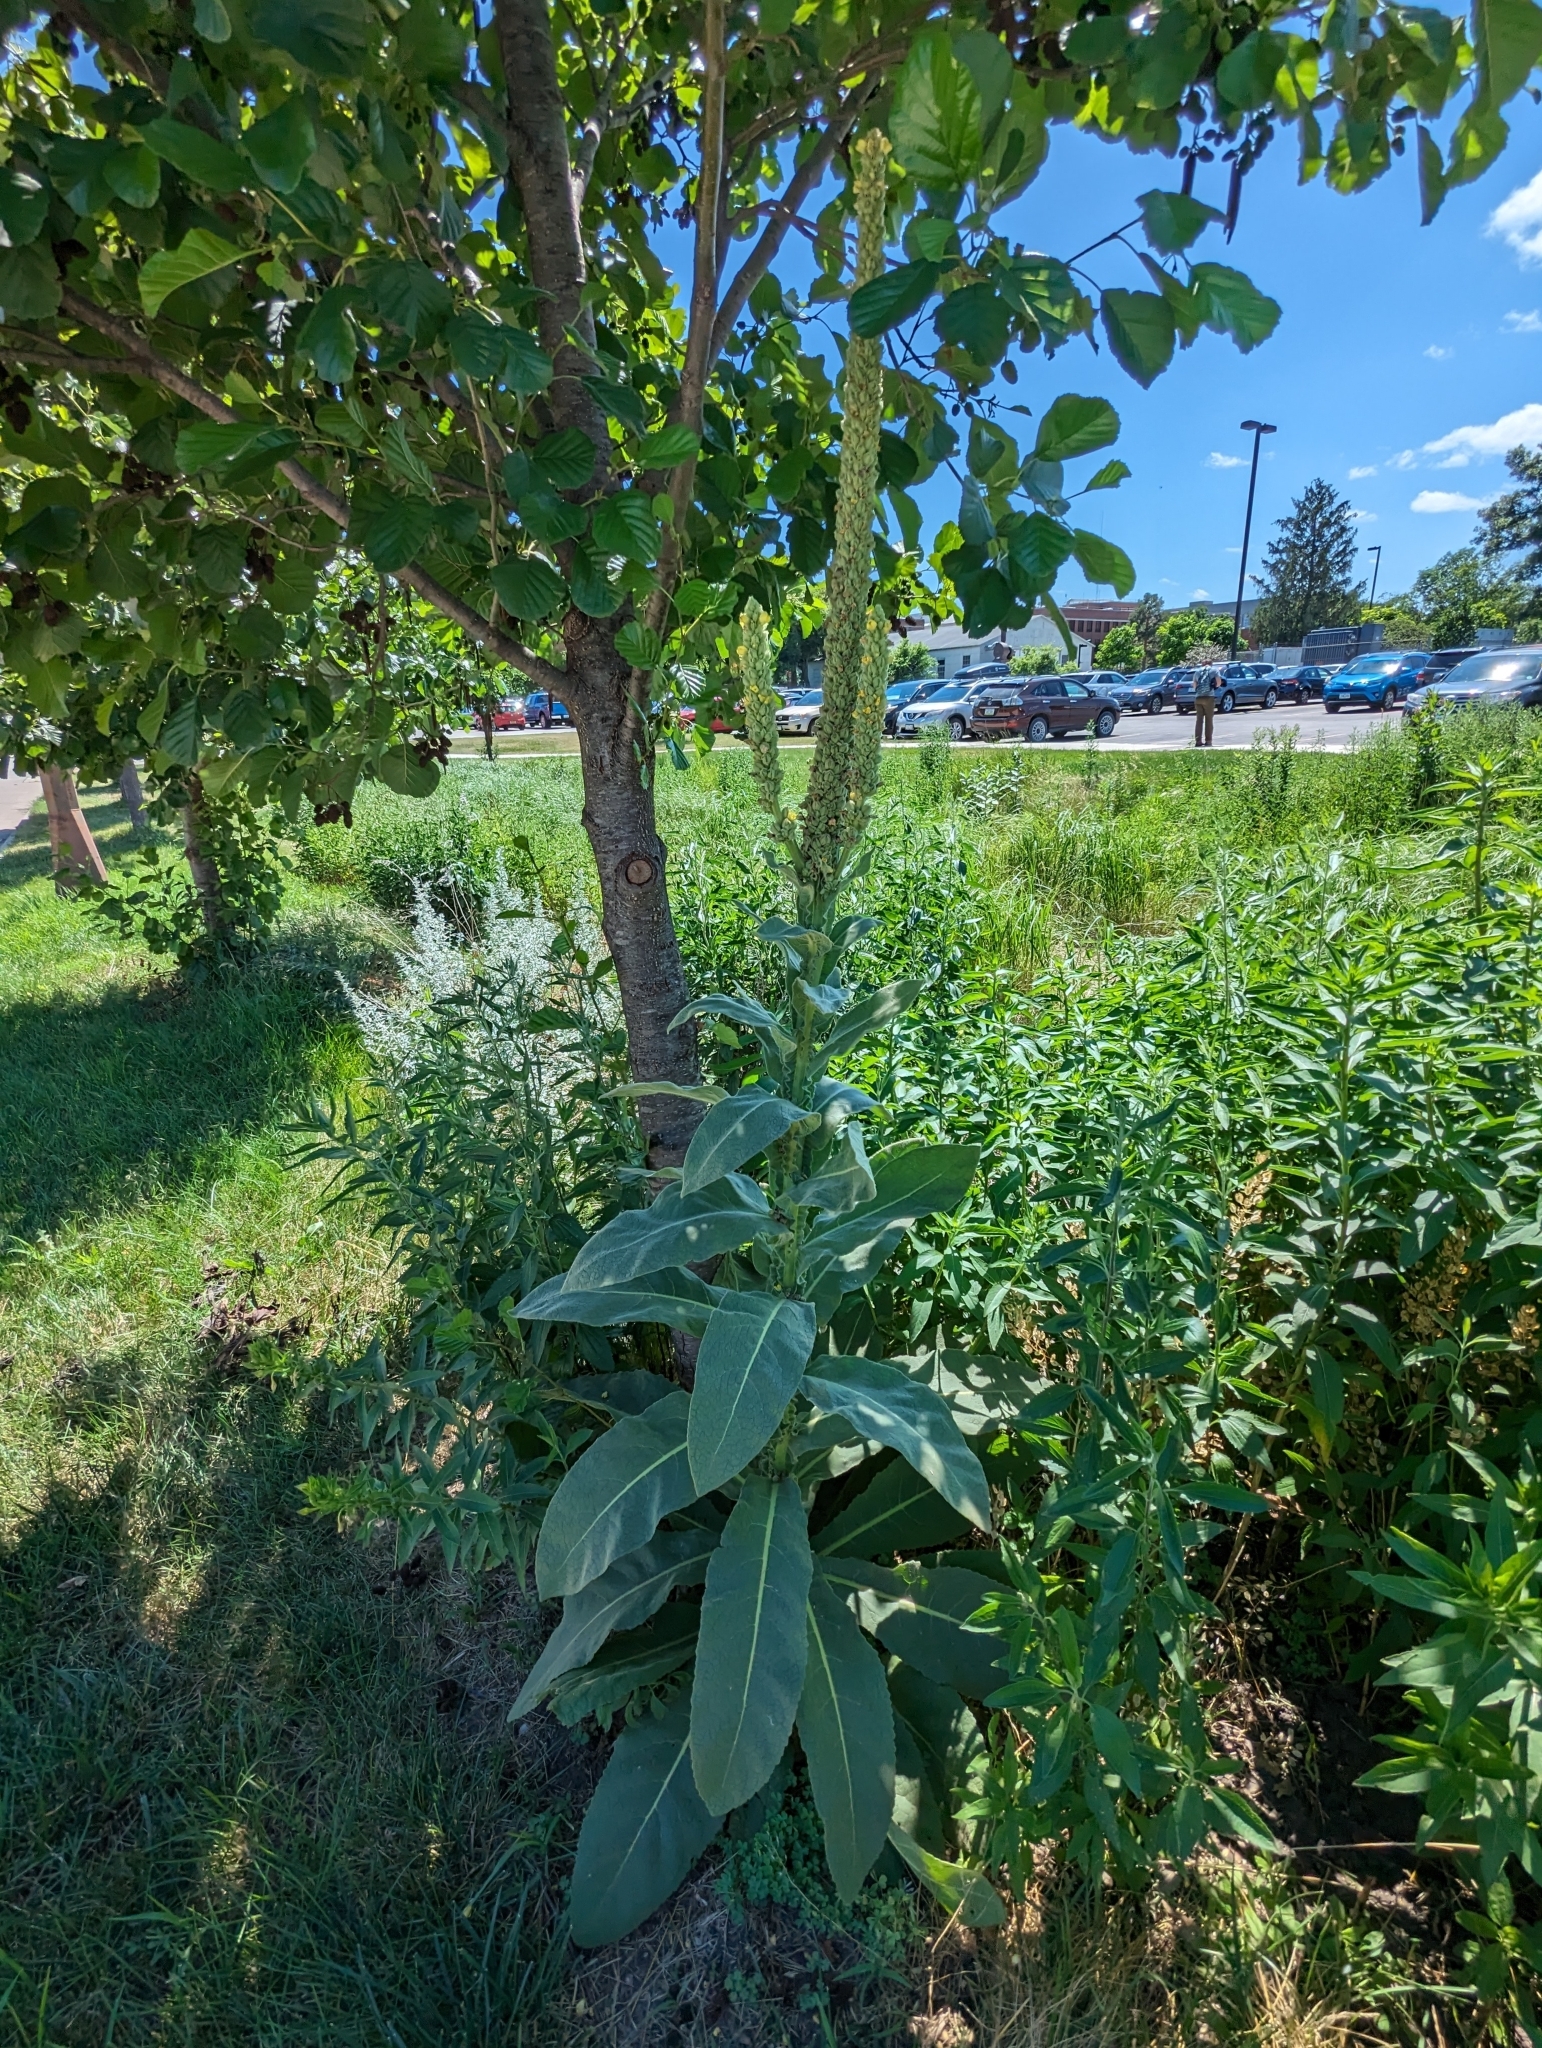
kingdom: Plantae
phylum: Tracheophyta
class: Magnoliopsida
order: Lamiales
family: Scrophulariaceae
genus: Verbascum
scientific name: Verbascum thapsus
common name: Common mullein
